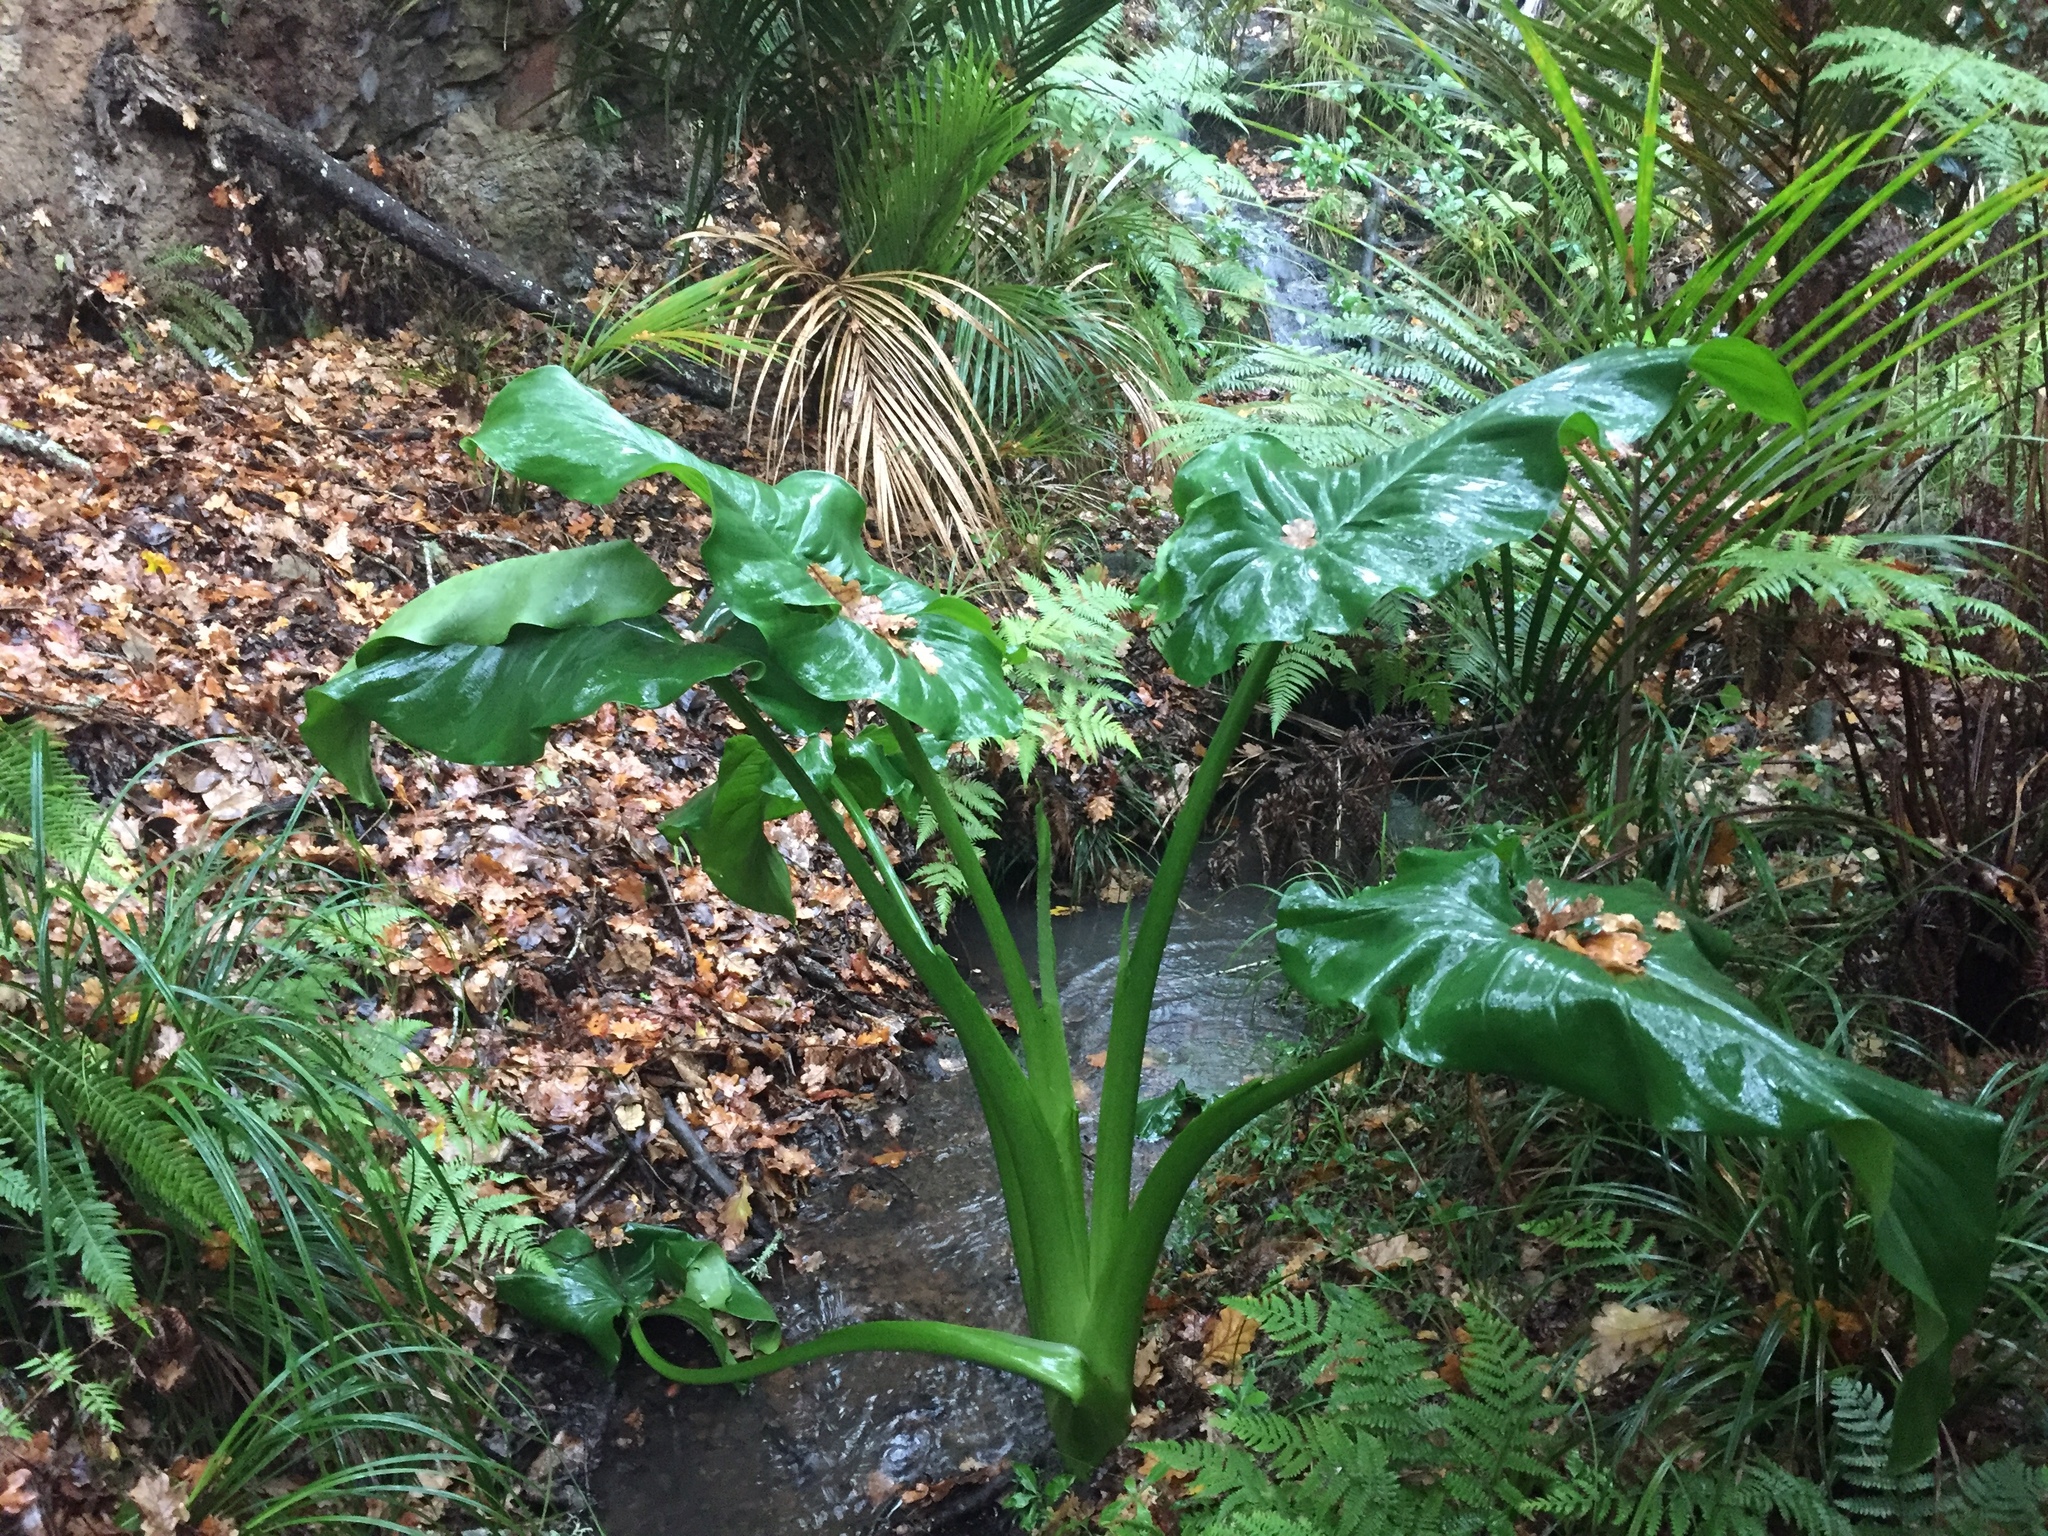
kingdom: Plantae
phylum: Tracheophyta
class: Liliopsida
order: Alismatales
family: Araceae
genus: Zantedeschia
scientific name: Zantedeschia aethiopica
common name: Altar-lily
